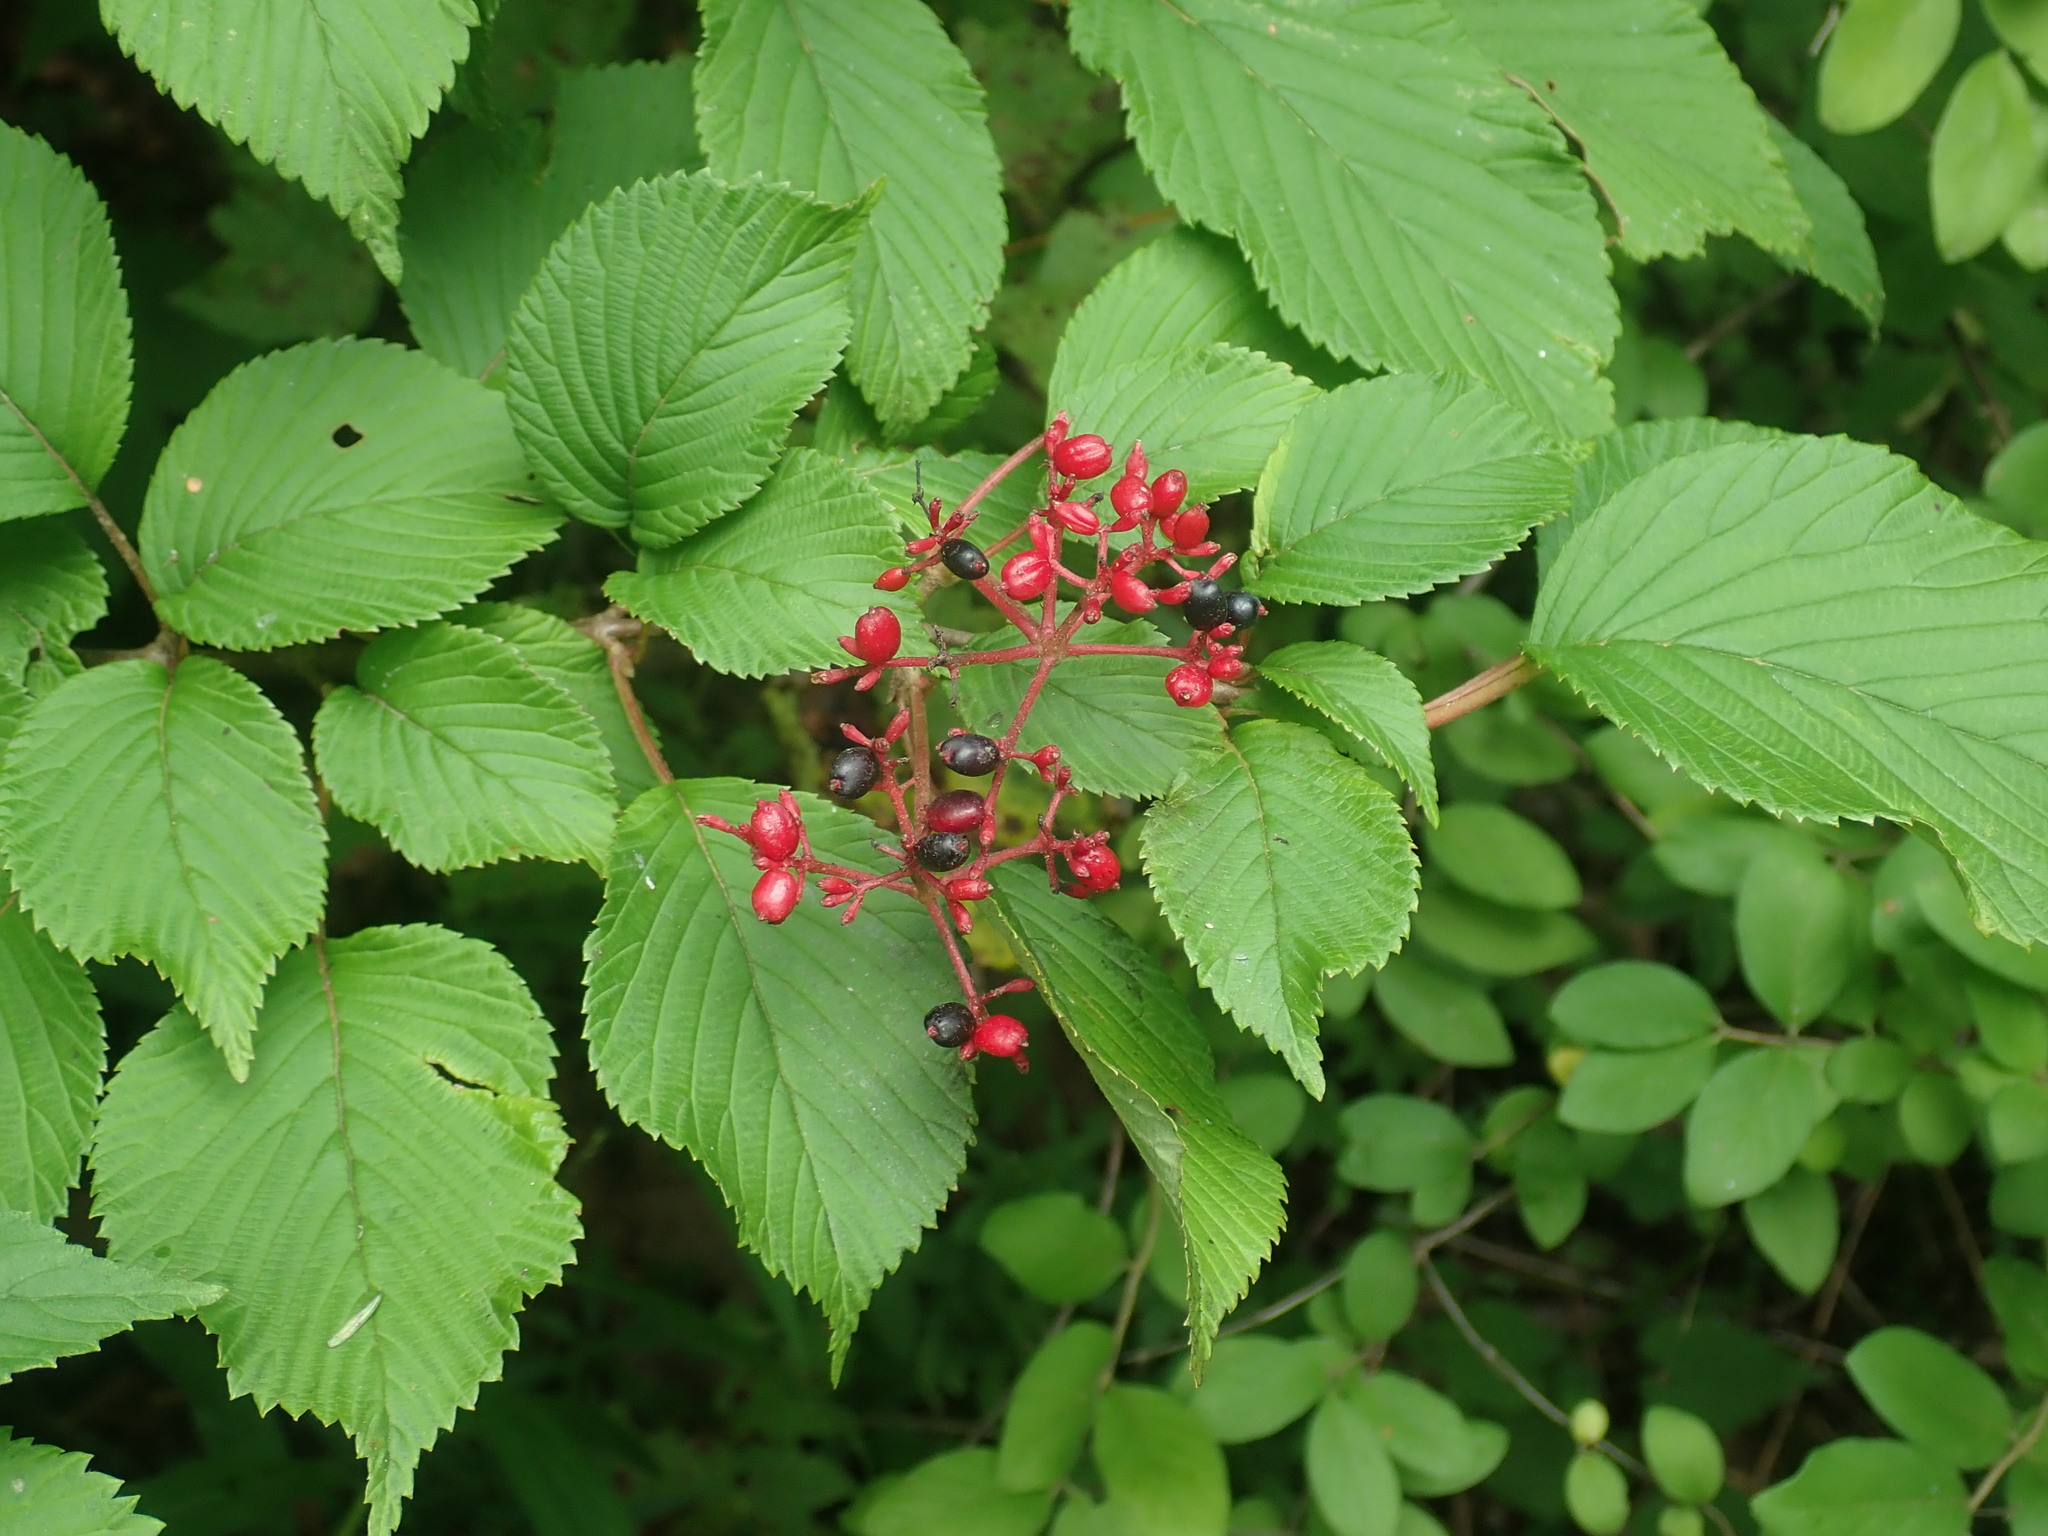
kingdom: Plantae
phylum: Tracheophyta
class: Magnoliopsida
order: Dipsacales
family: Viburnaceae
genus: Viburnum
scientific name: Viburnum plicatum
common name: Japanese snowball
